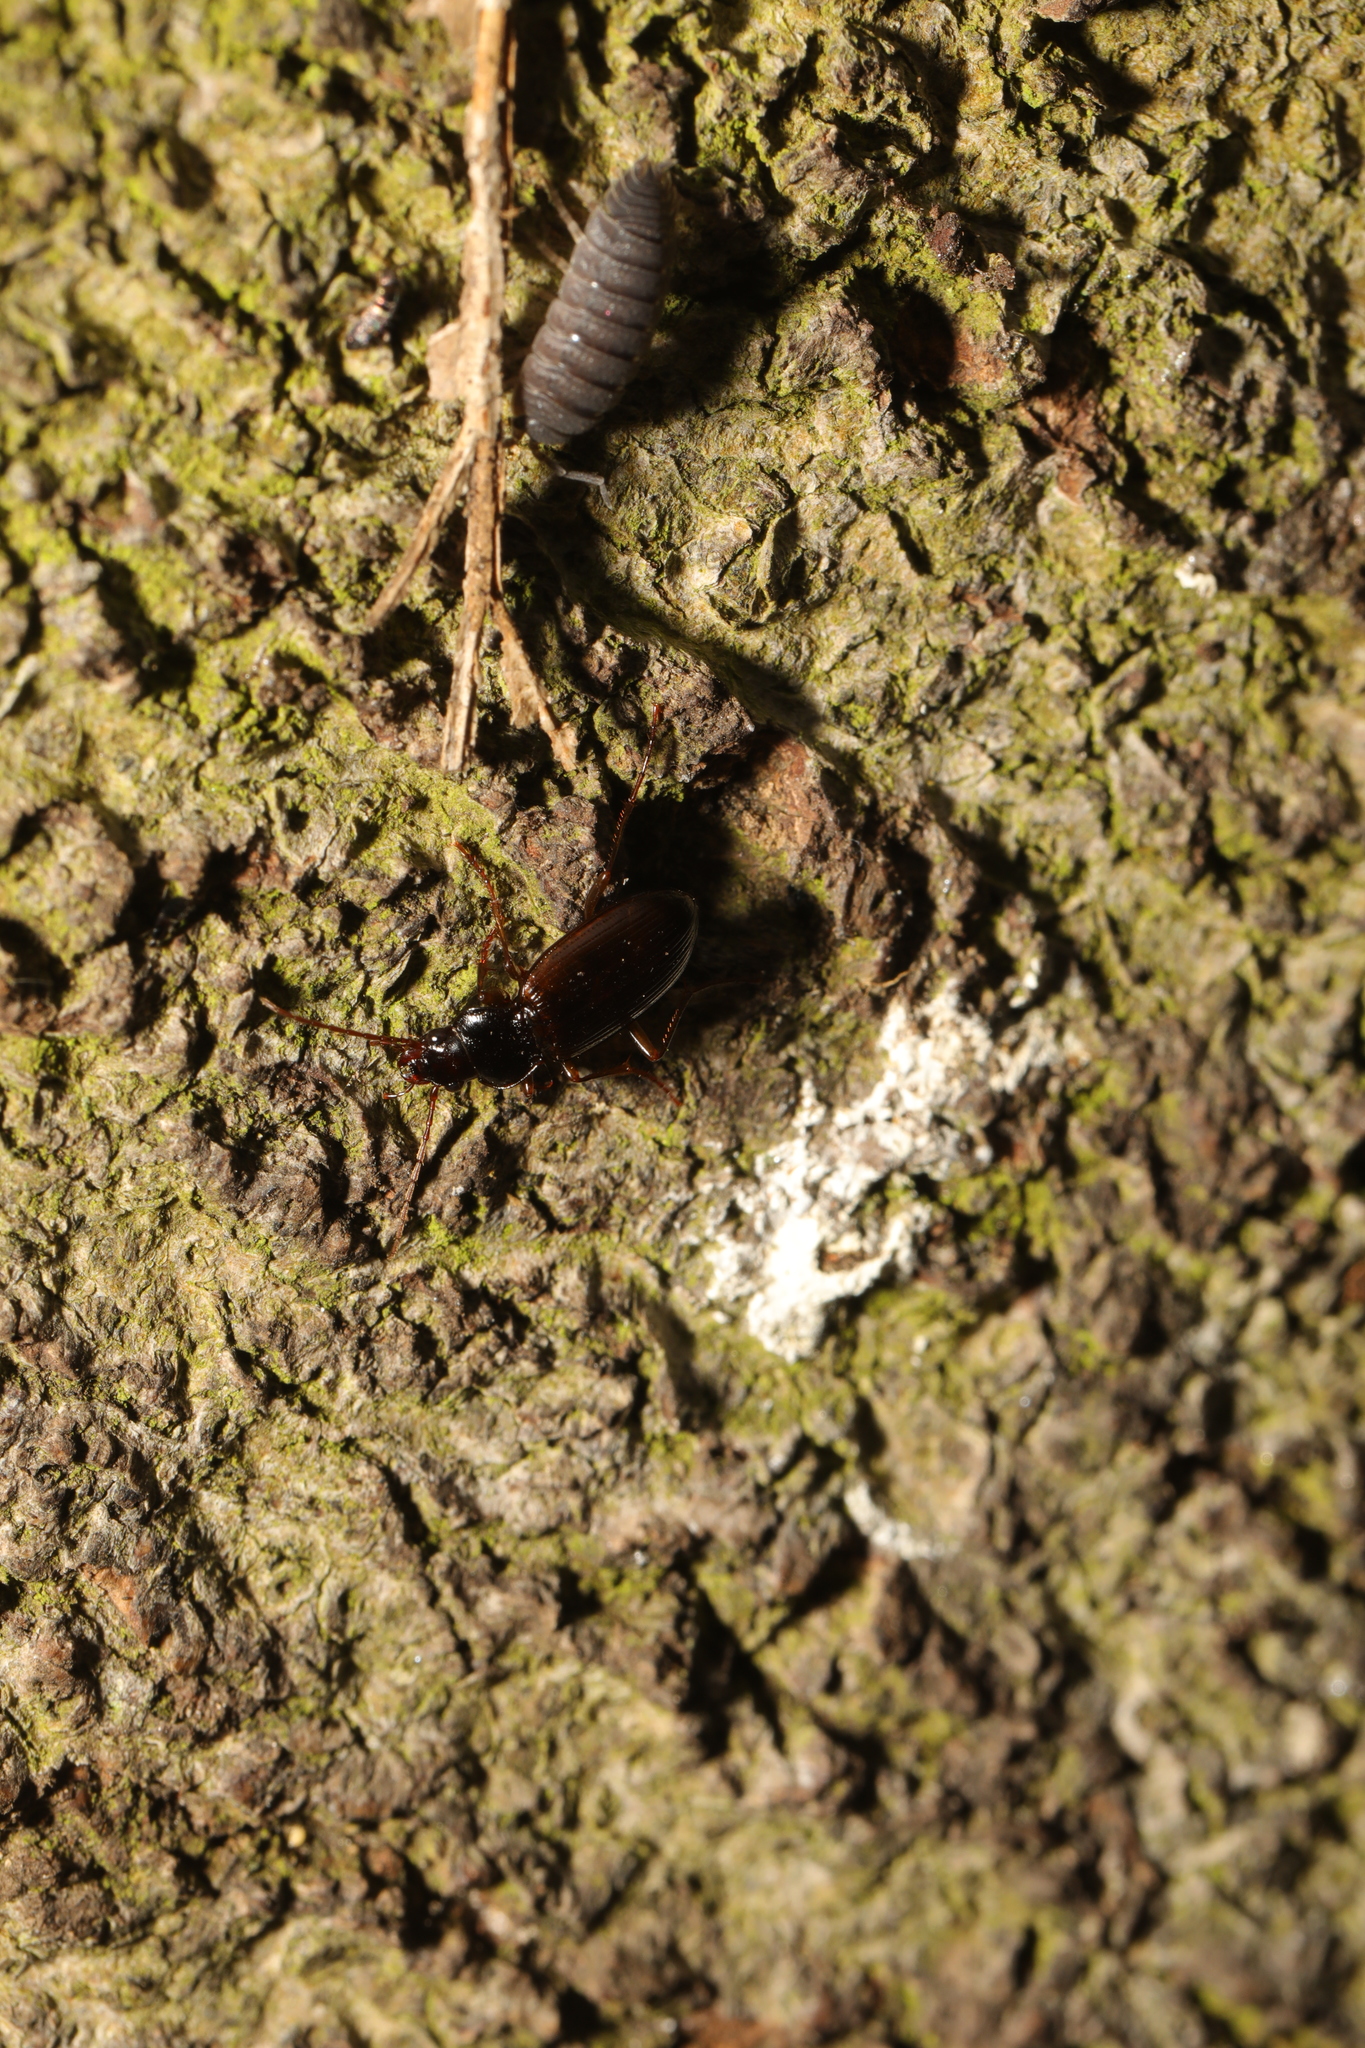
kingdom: Animalia
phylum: Arthropoda
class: Malacostraca
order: Isopoda
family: Porcellionidae
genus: Porcellio
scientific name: Porcellio scaber
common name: Common rough woodlouse
